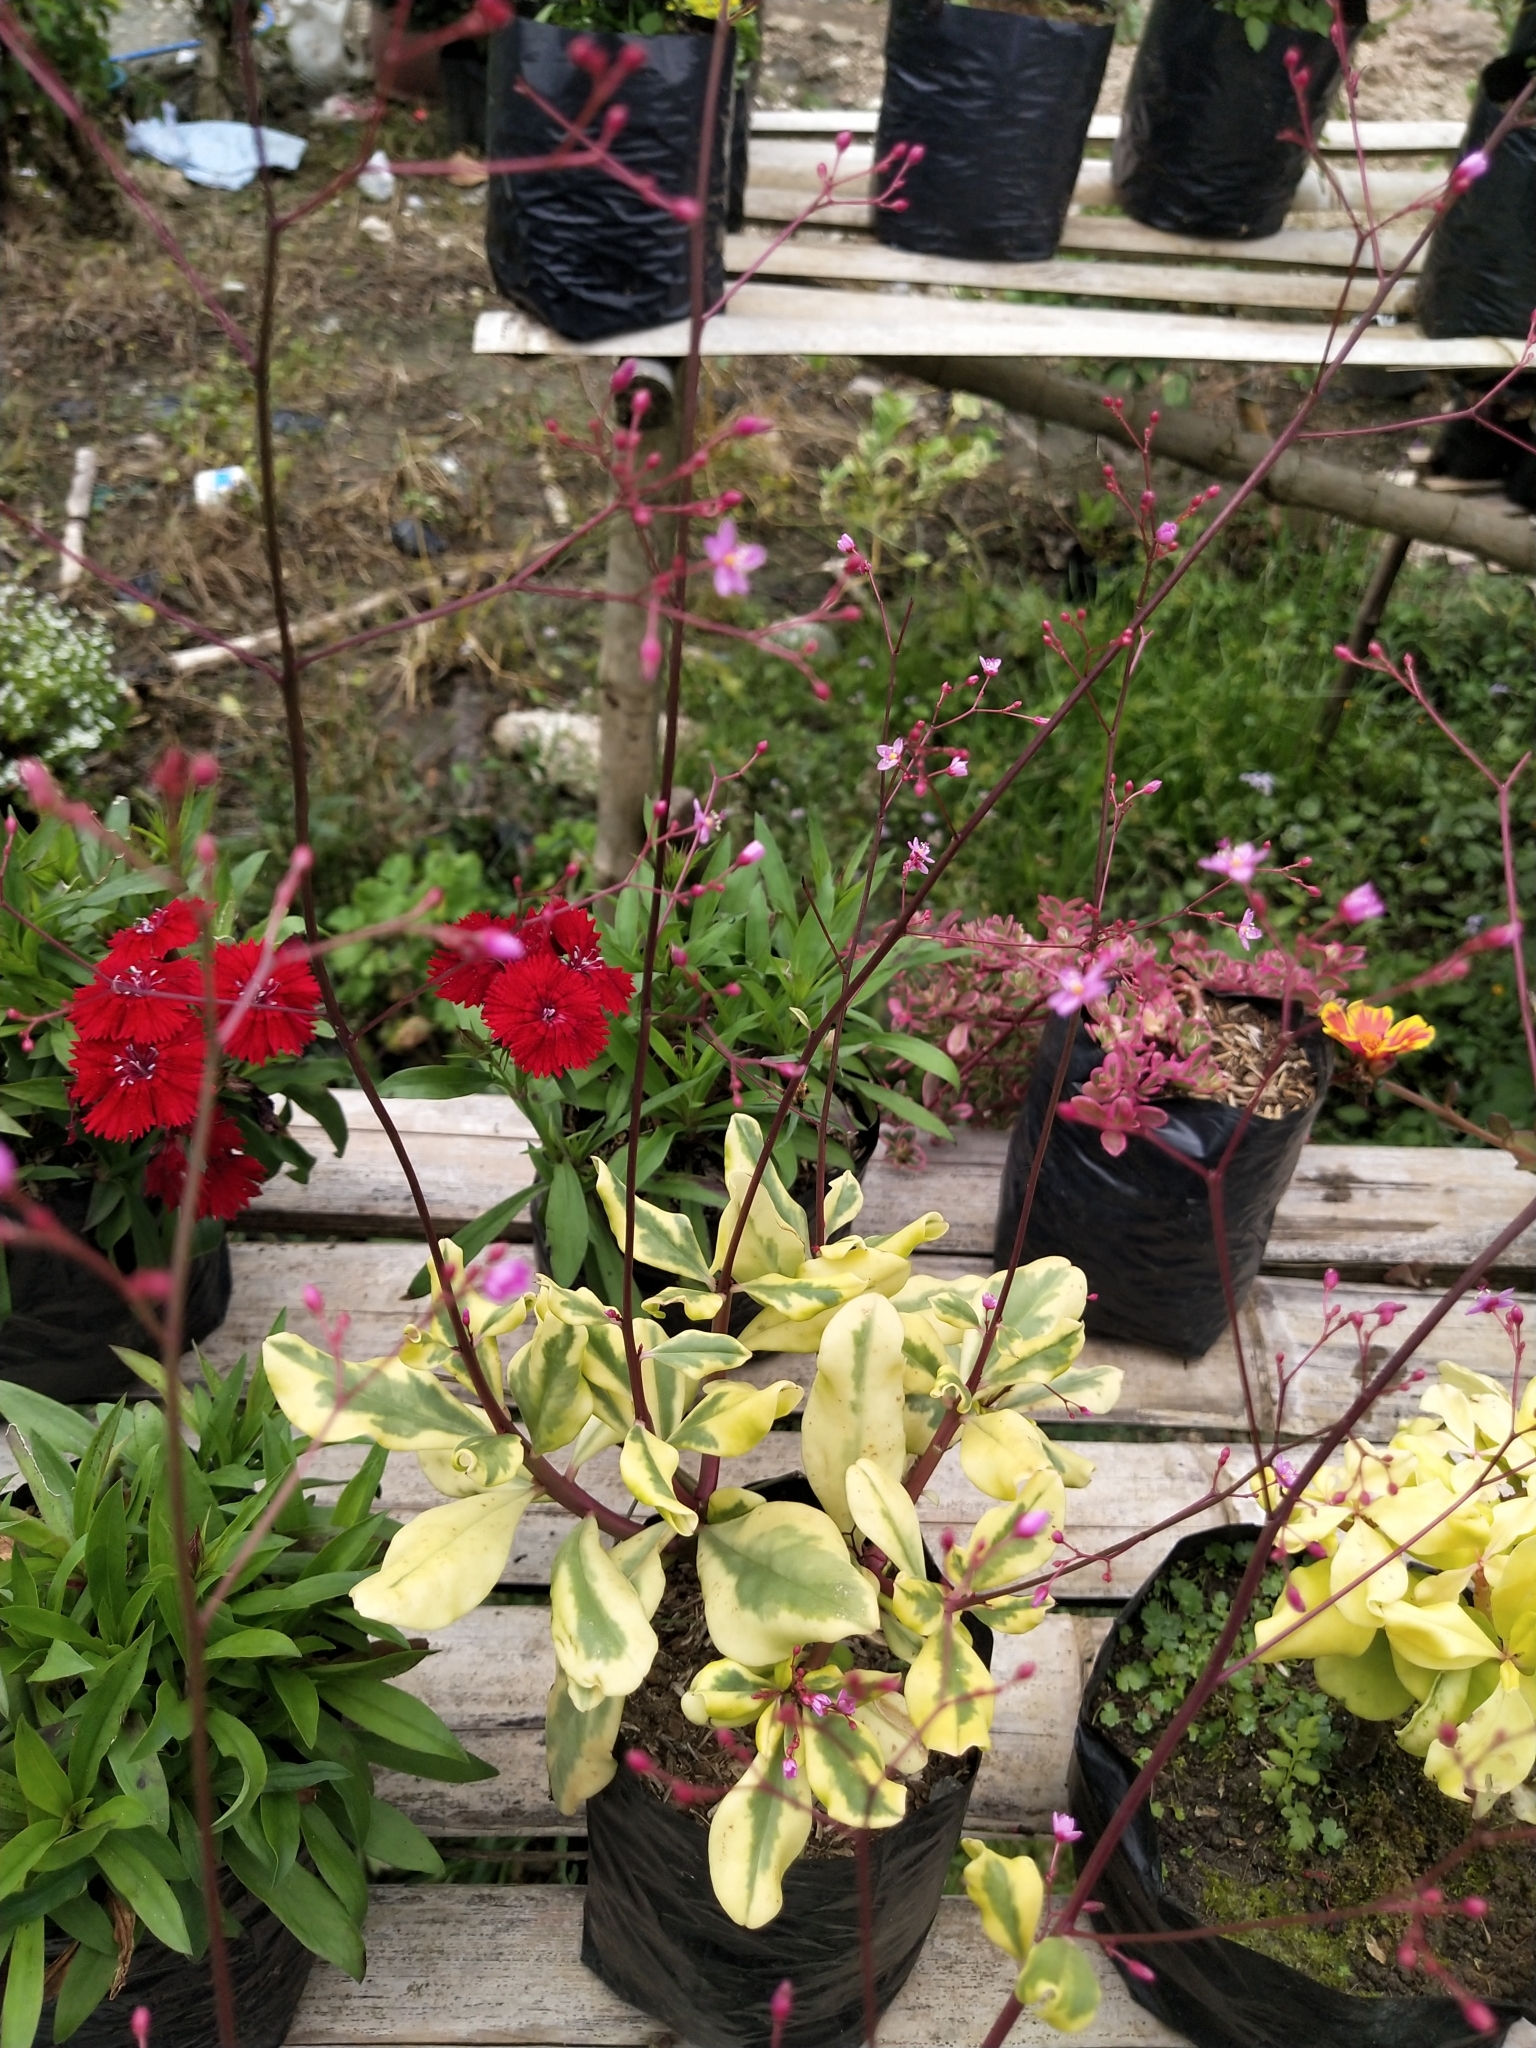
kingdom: Plantae
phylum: Tracheophyta
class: Magnoliopsida
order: Caryophyllales
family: Talinaceae
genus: Talinum
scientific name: Talinum paniculatum
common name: Jewels of opar
